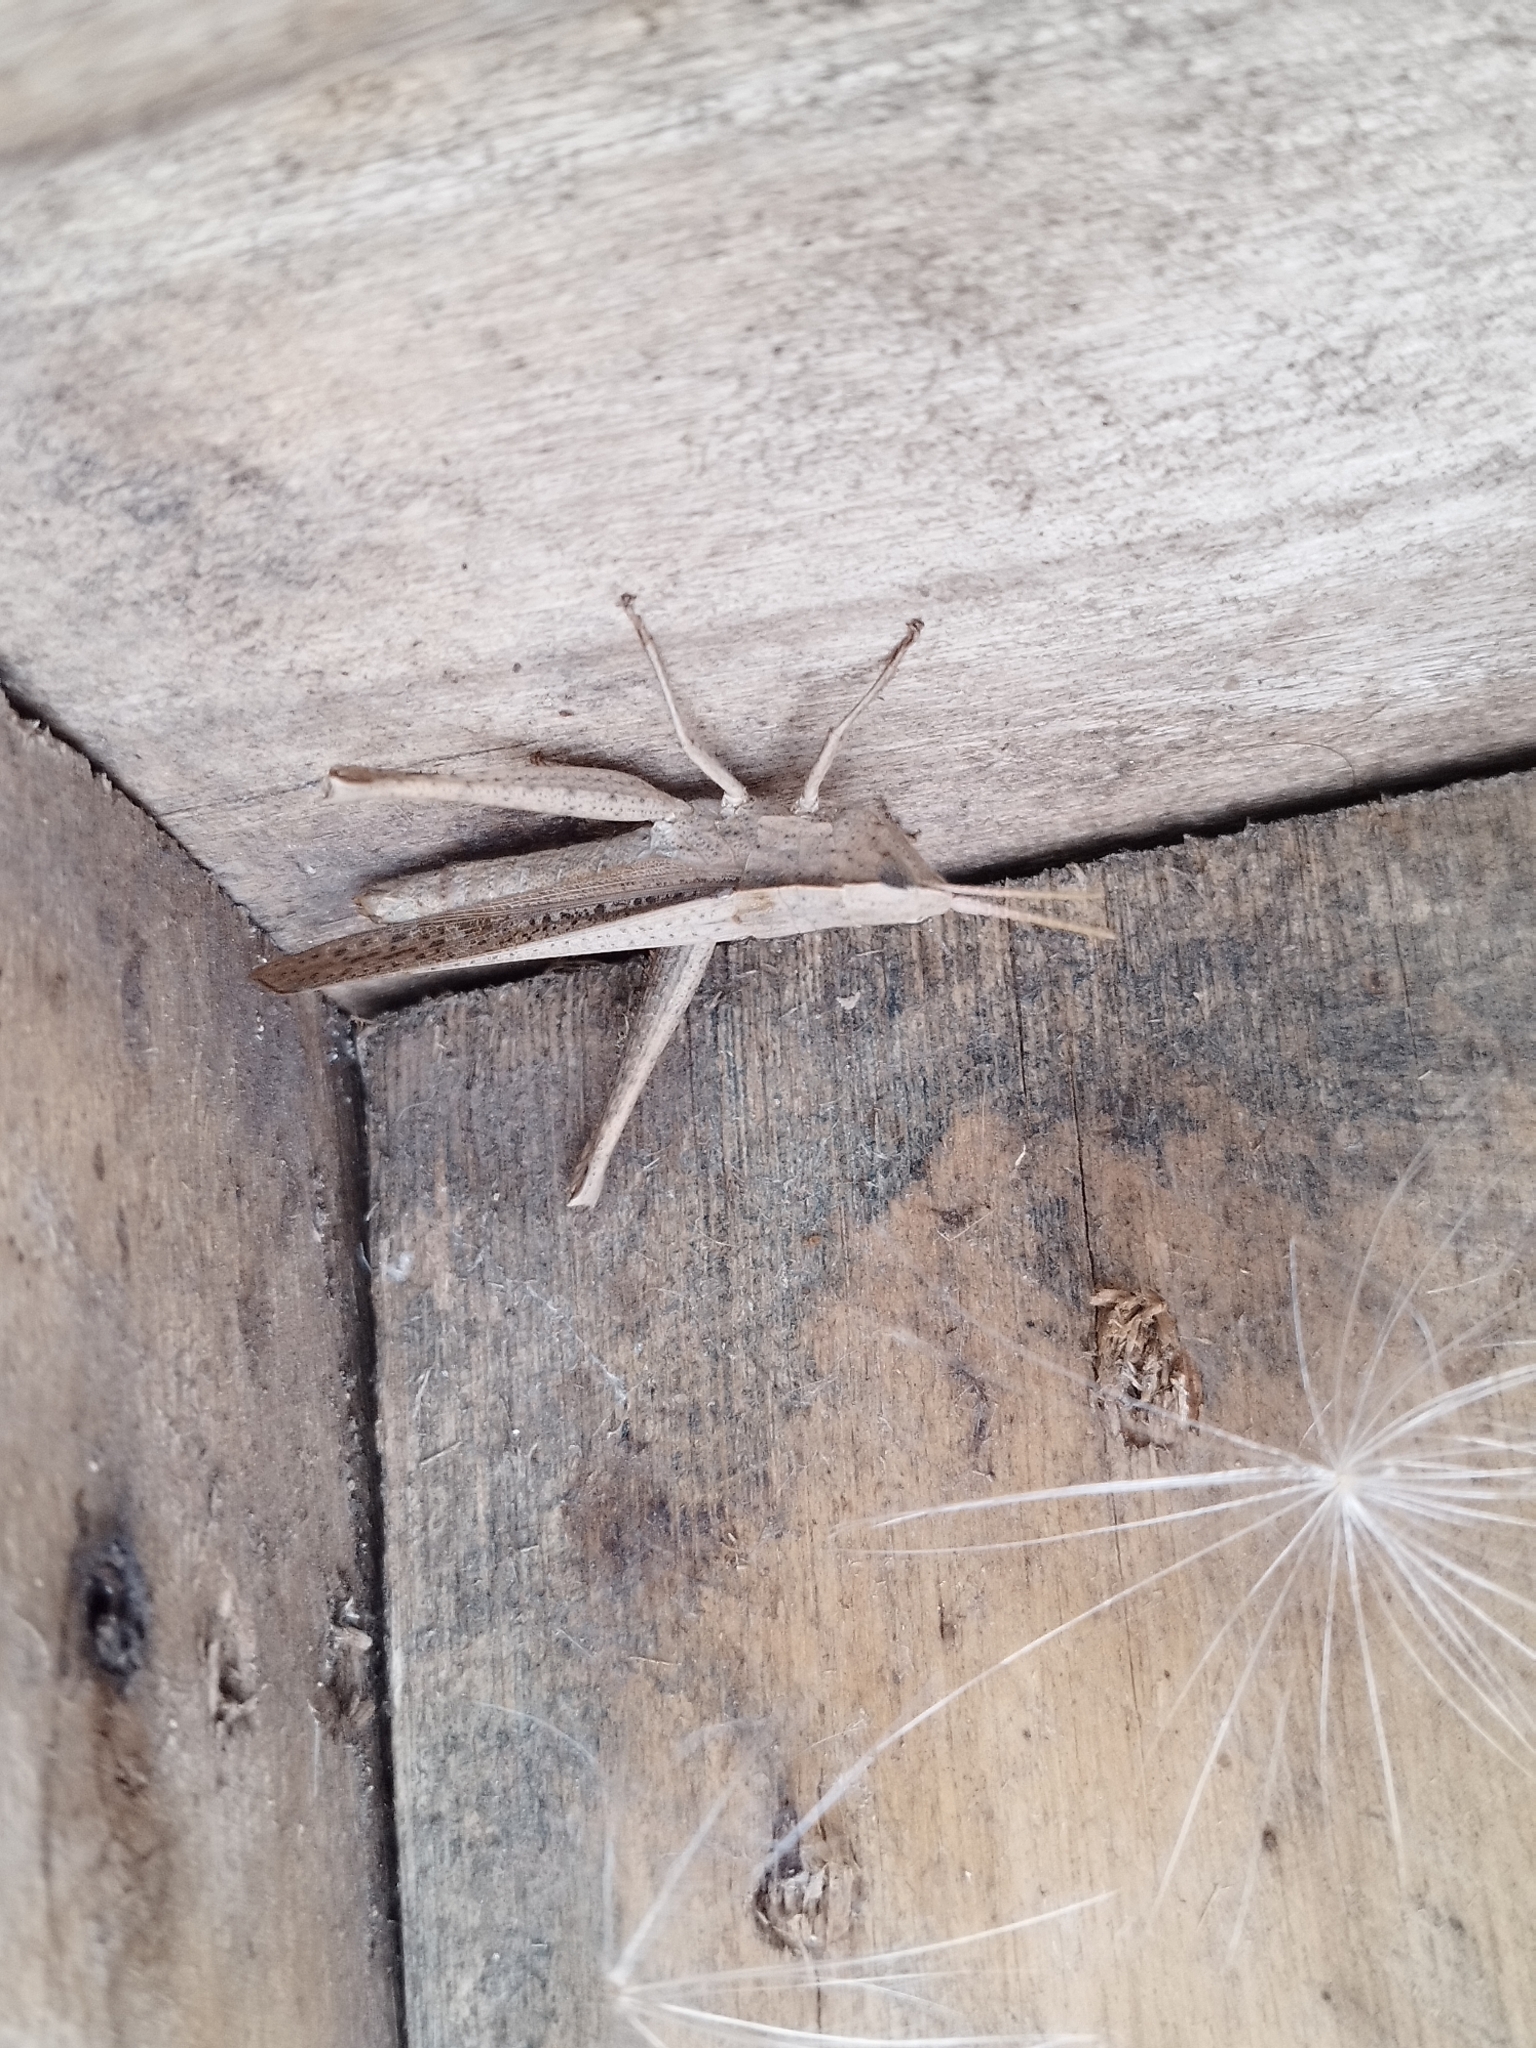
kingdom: Animalia
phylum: Arthropoda
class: Insecta
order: Orthoptera
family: Acrididae
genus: Metaleptea
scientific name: Metaleptea adspersa
